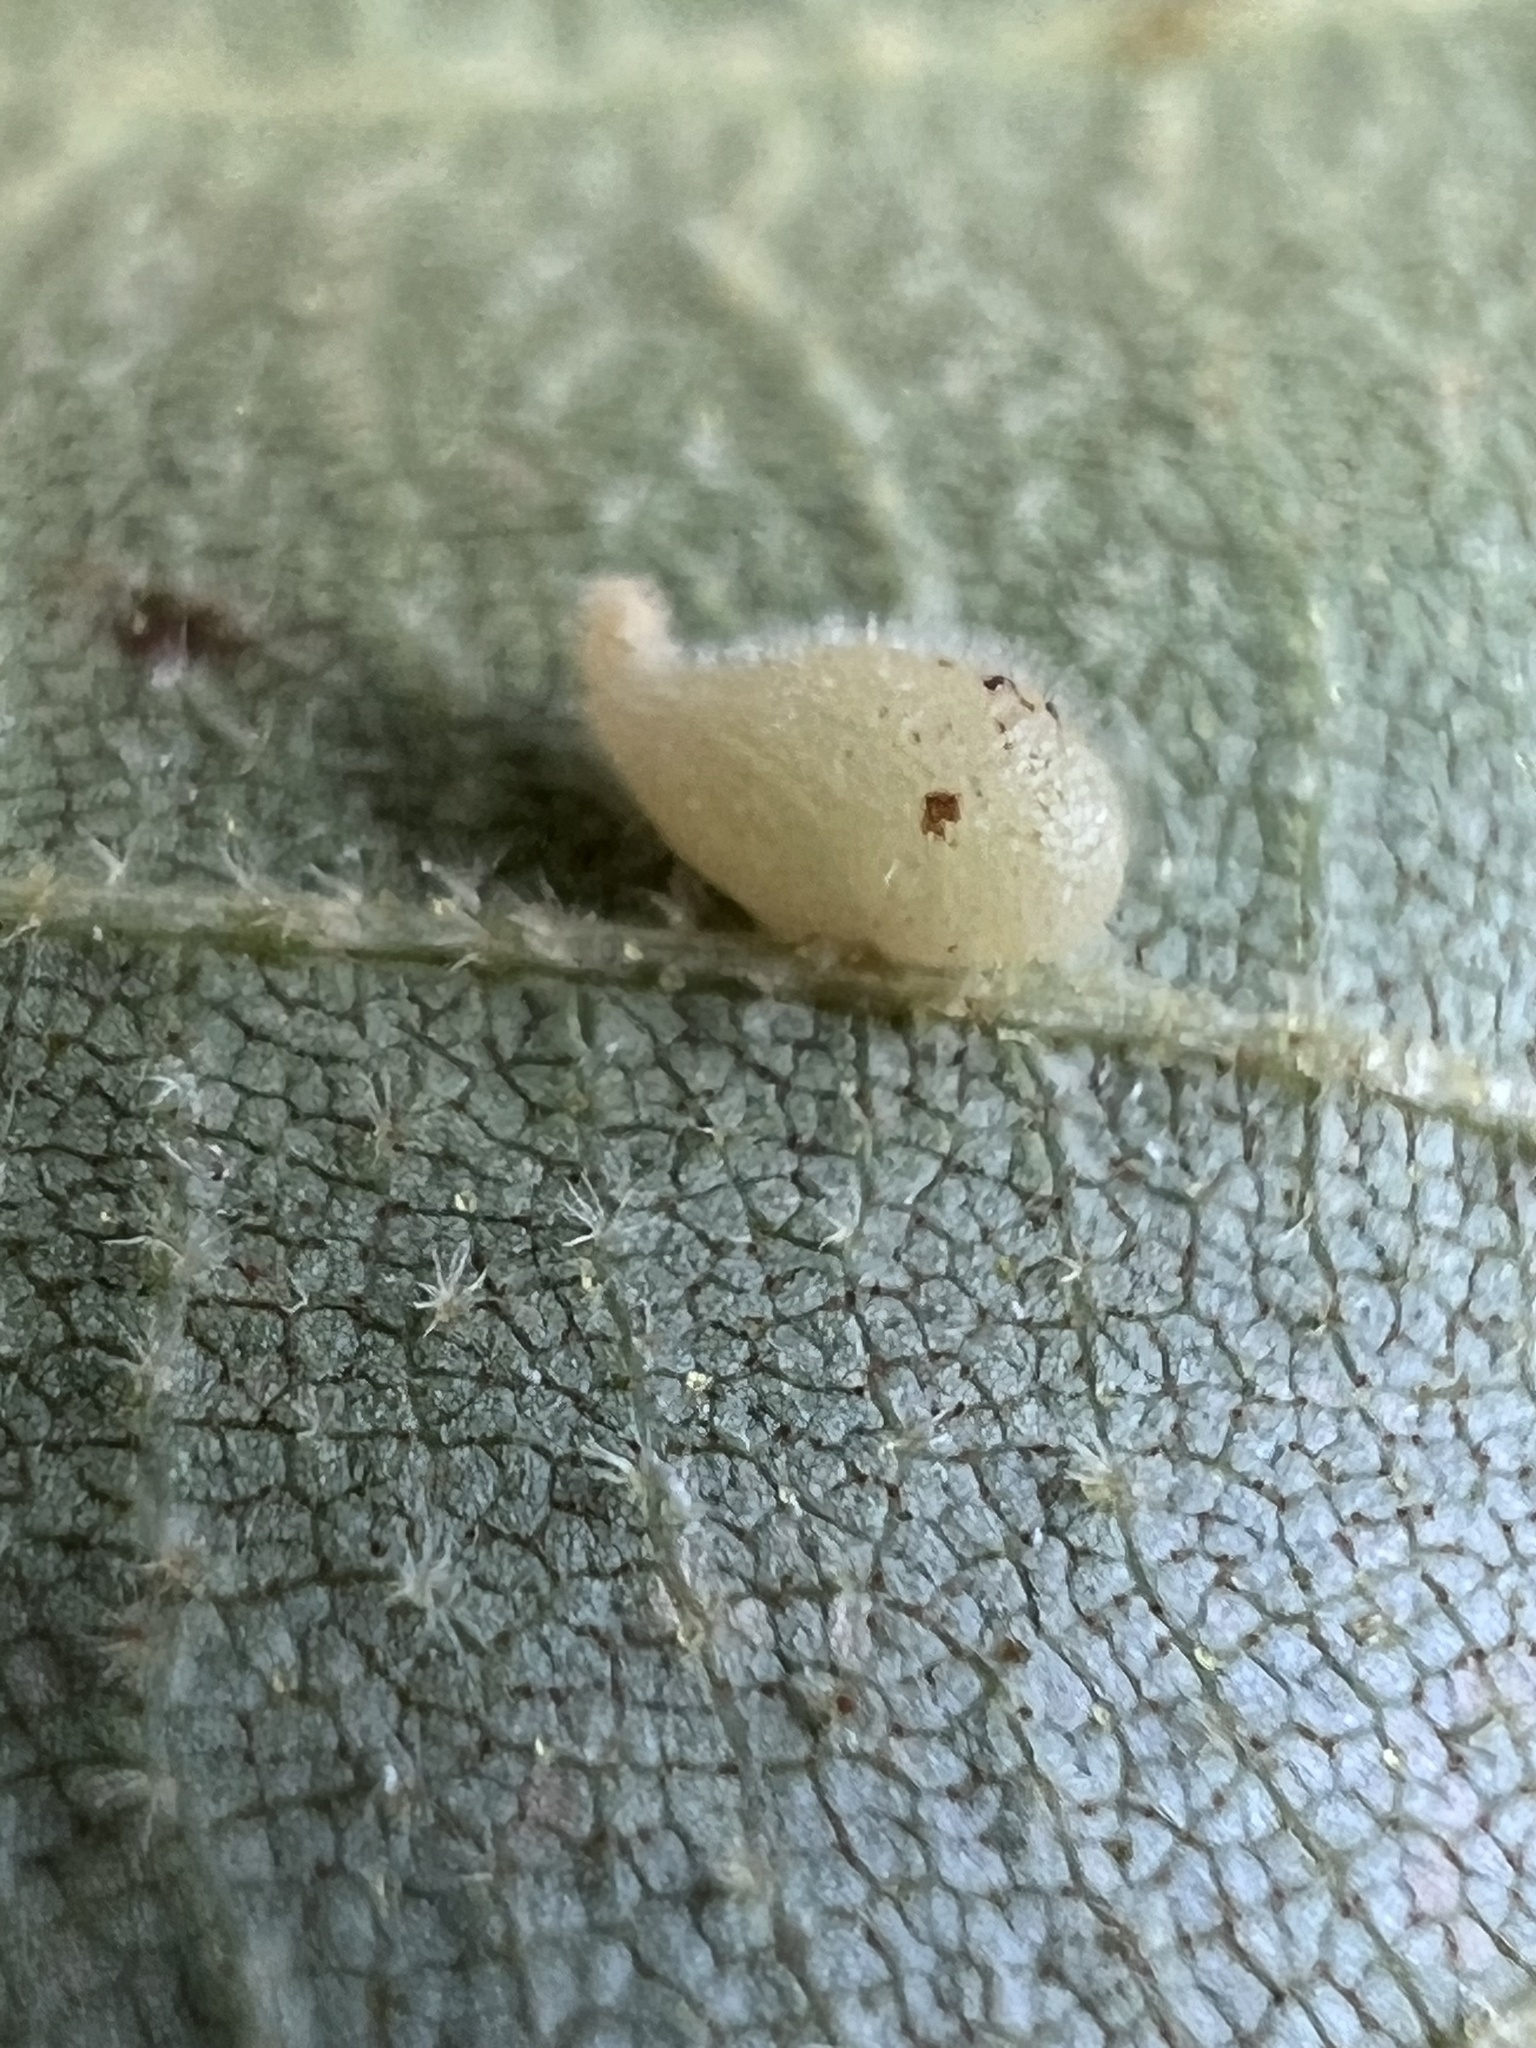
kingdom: Animalia
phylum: Arthropoda
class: Insecta
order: Diptera
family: Cecidomyiidae
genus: Caryomyia
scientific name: Caryomyia eumaris
